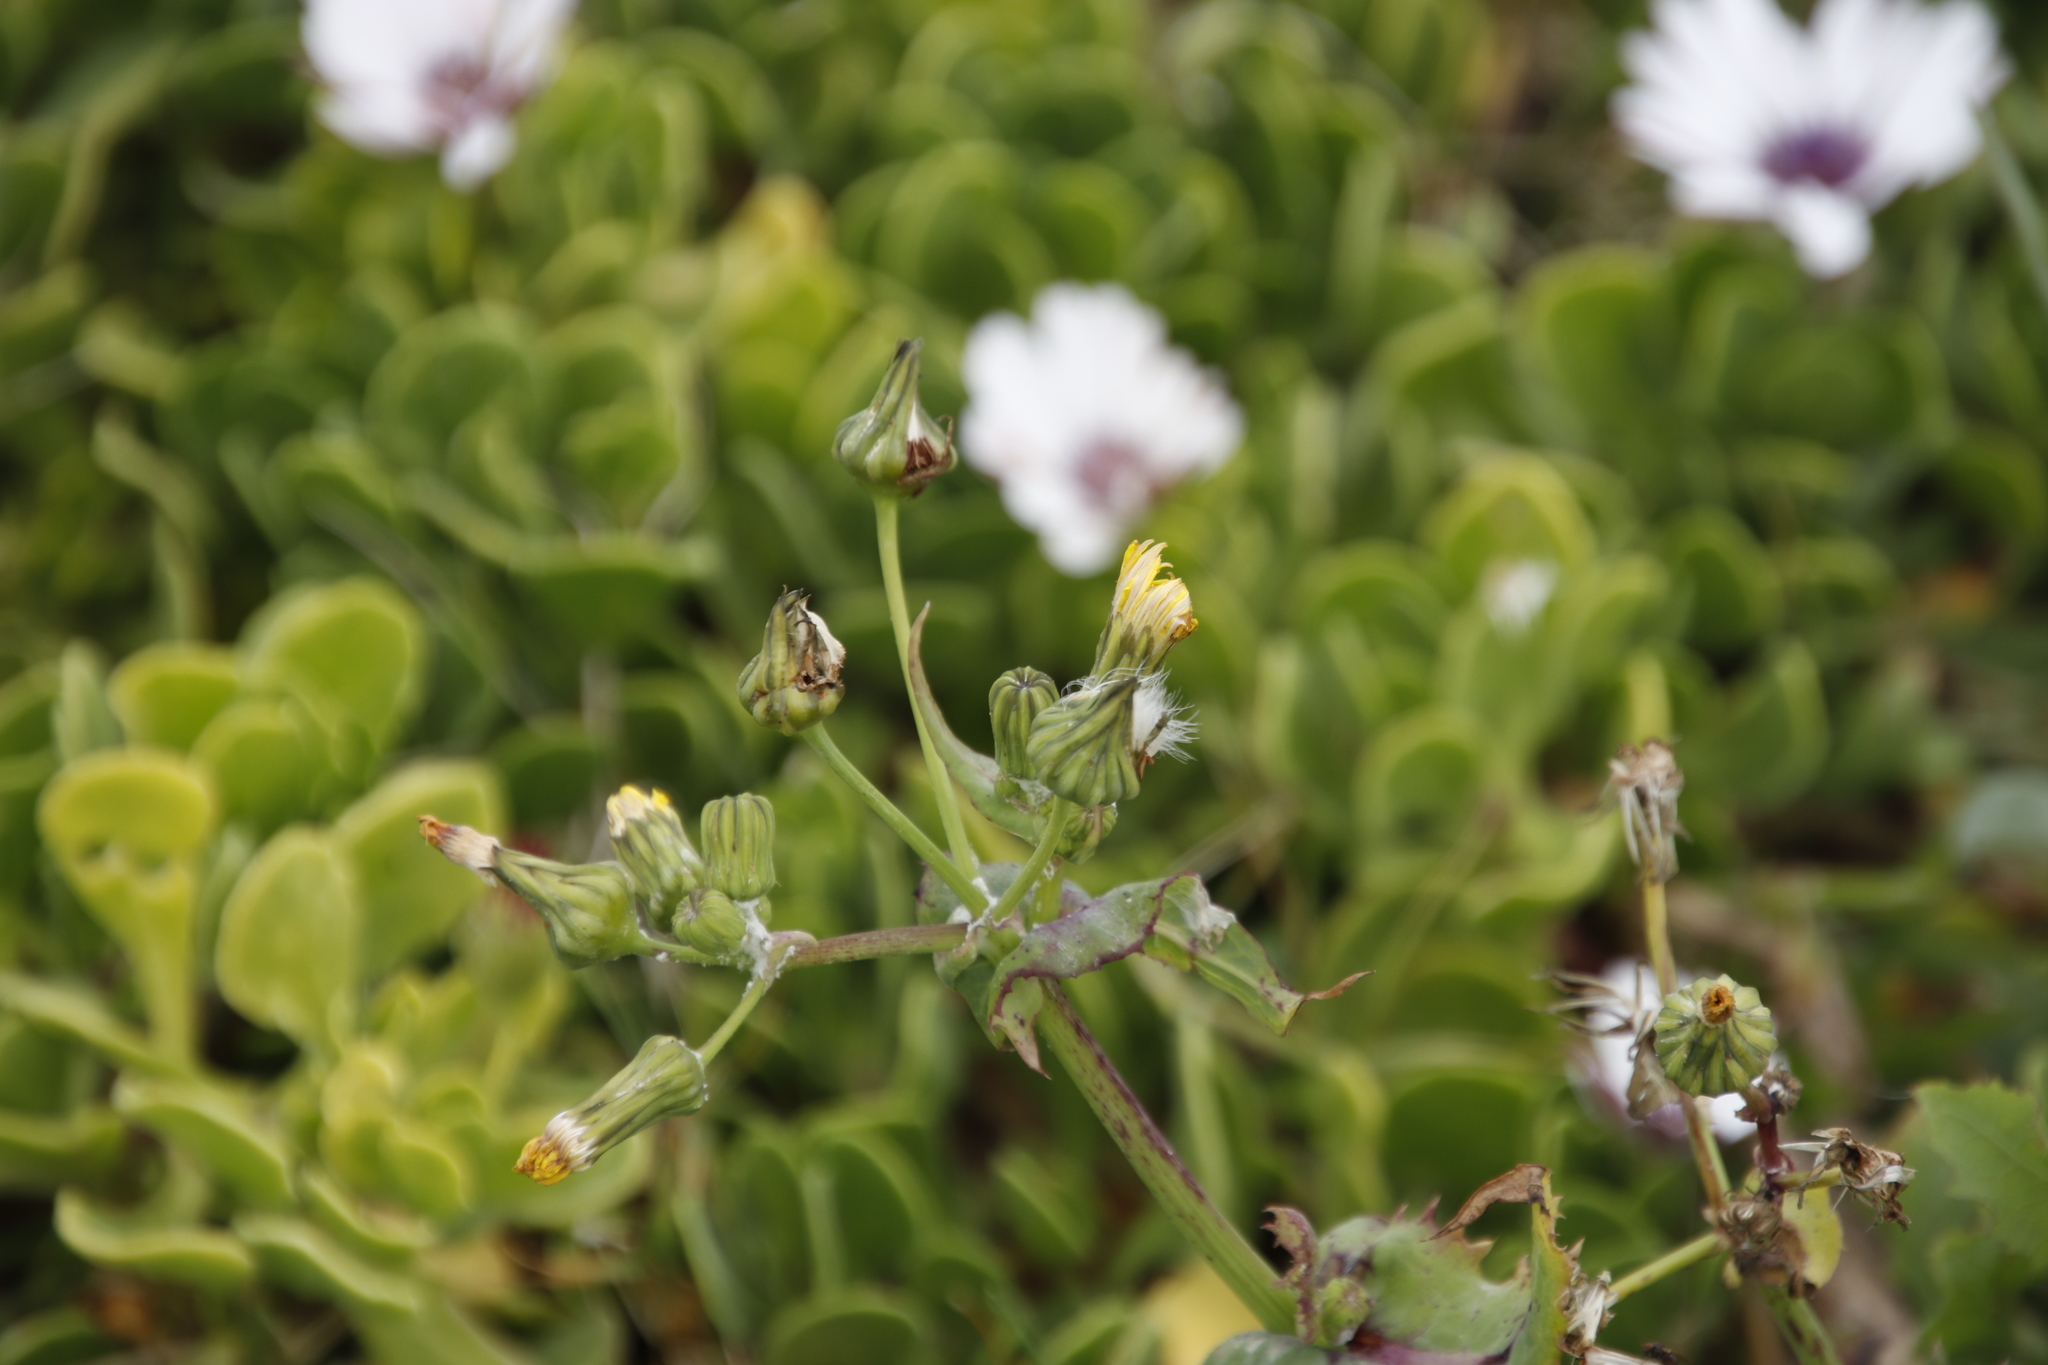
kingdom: Plantae
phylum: Tracheophyta
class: Magnoliopsida
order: Asterales
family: Asteraceae
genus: Sonchus
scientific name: Sonchus oleraceus
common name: Common sowthistle
